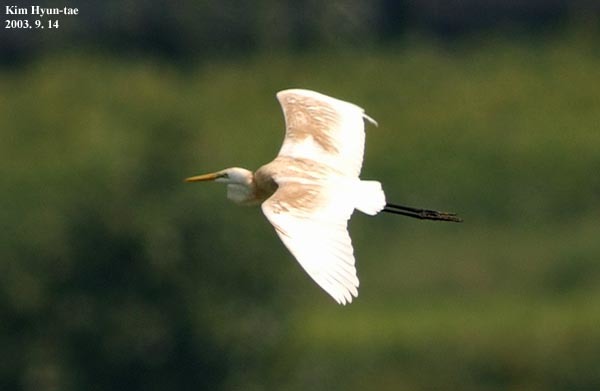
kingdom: Animalia
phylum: Chordata
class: Aves
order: Pelecaniformes
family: Ardeidae
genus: Ardea
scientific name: Ardea alba
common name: Great egret
